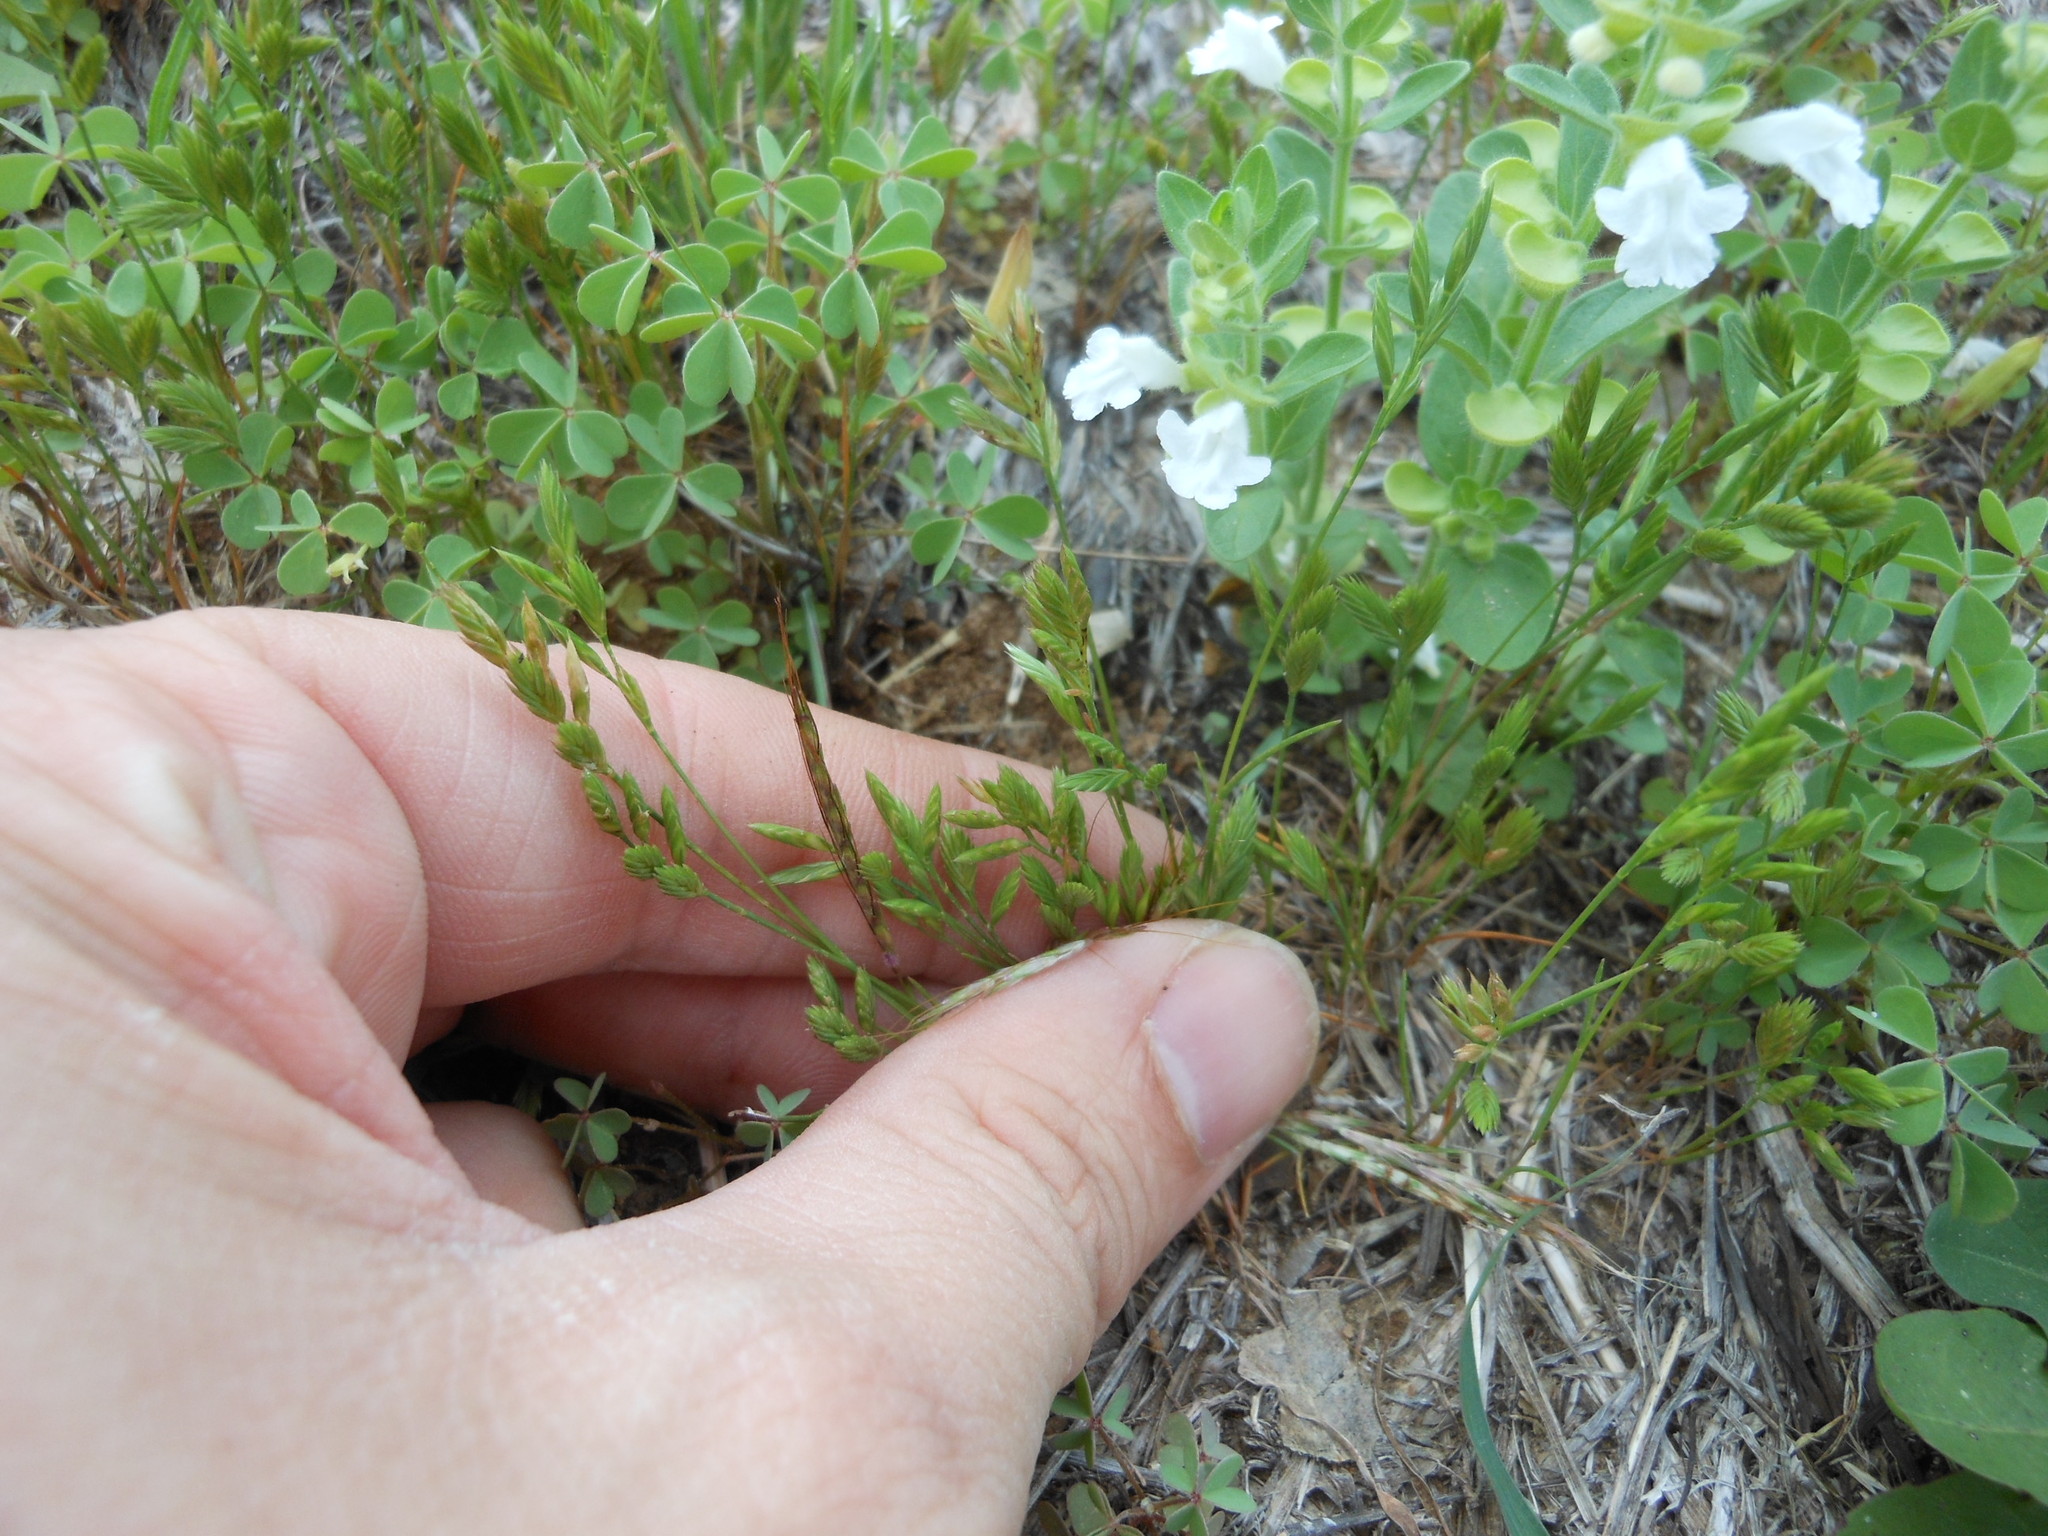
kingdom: Plantae
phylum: Tracheophyta
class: Liliopsida
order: Poales
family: Poaceae
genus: Festuca
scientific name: Festuca octoflora
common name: Sixweeks grass
